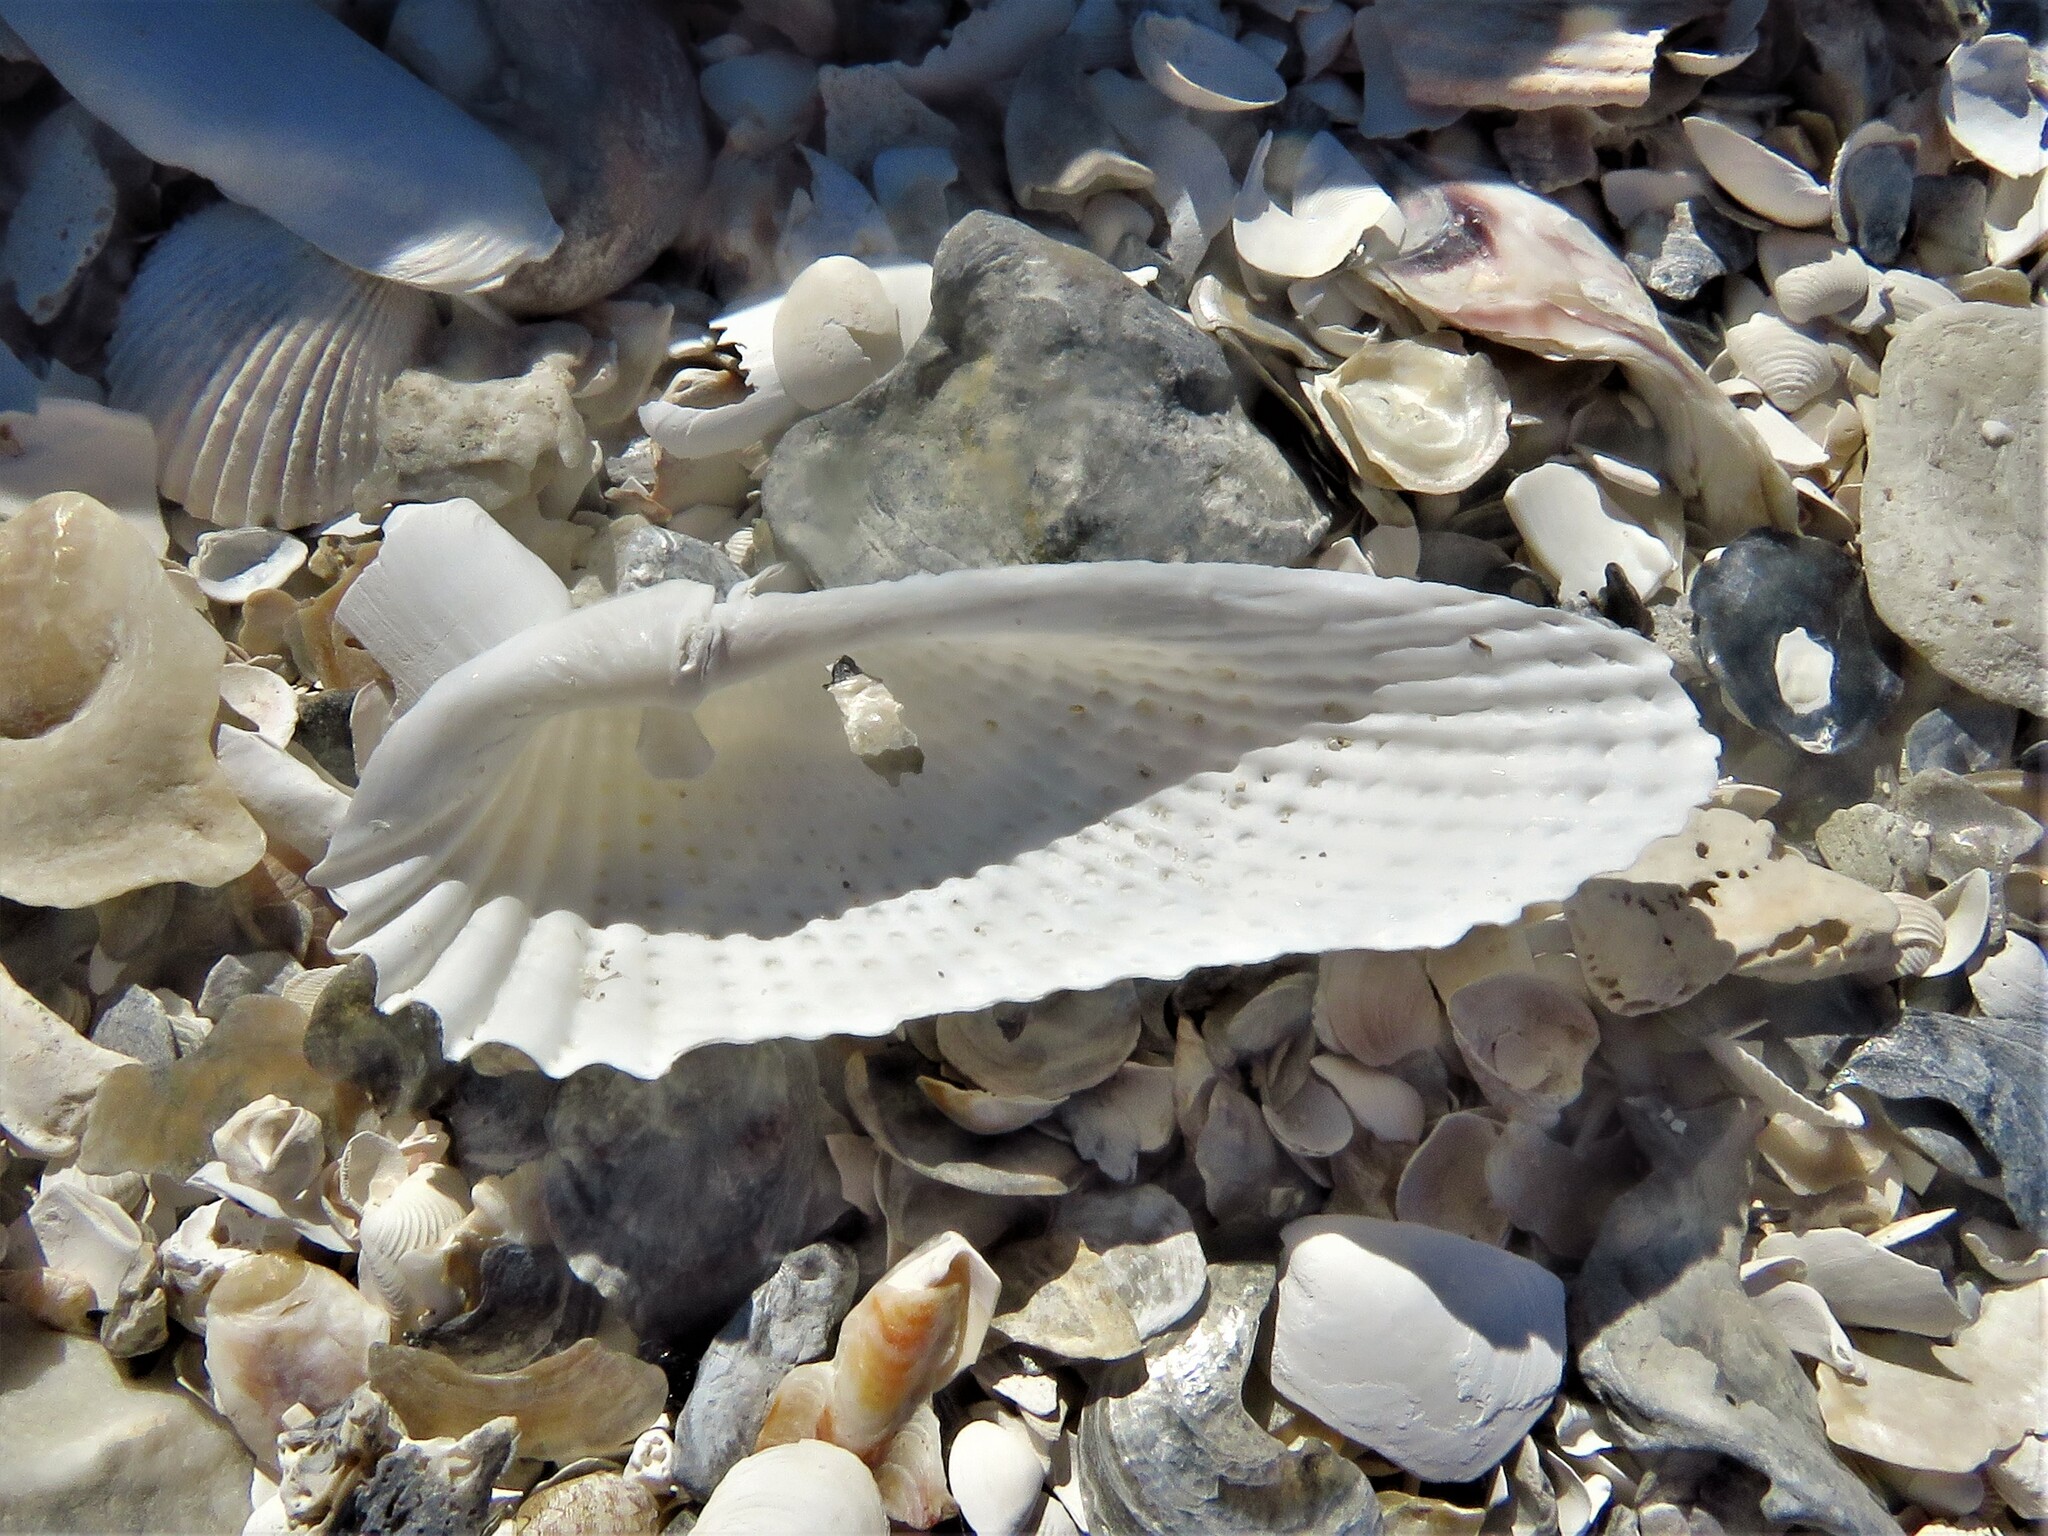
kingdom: Animalia
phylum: Mollusca
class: Bivalvia
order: Myida
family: Pholadidae
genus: Cyrtopleura
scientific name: Cyrtopleura costata
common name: Angel wing
